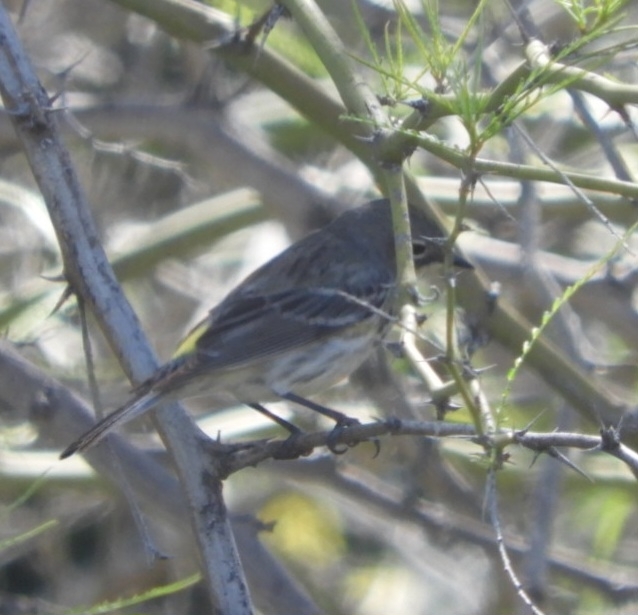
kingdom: Animalia
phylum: Chordata
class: Aves
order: Passeriformes
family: Parulidae
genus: Setophaga
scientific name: Setophaga coronata
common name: Myrtle warbler
